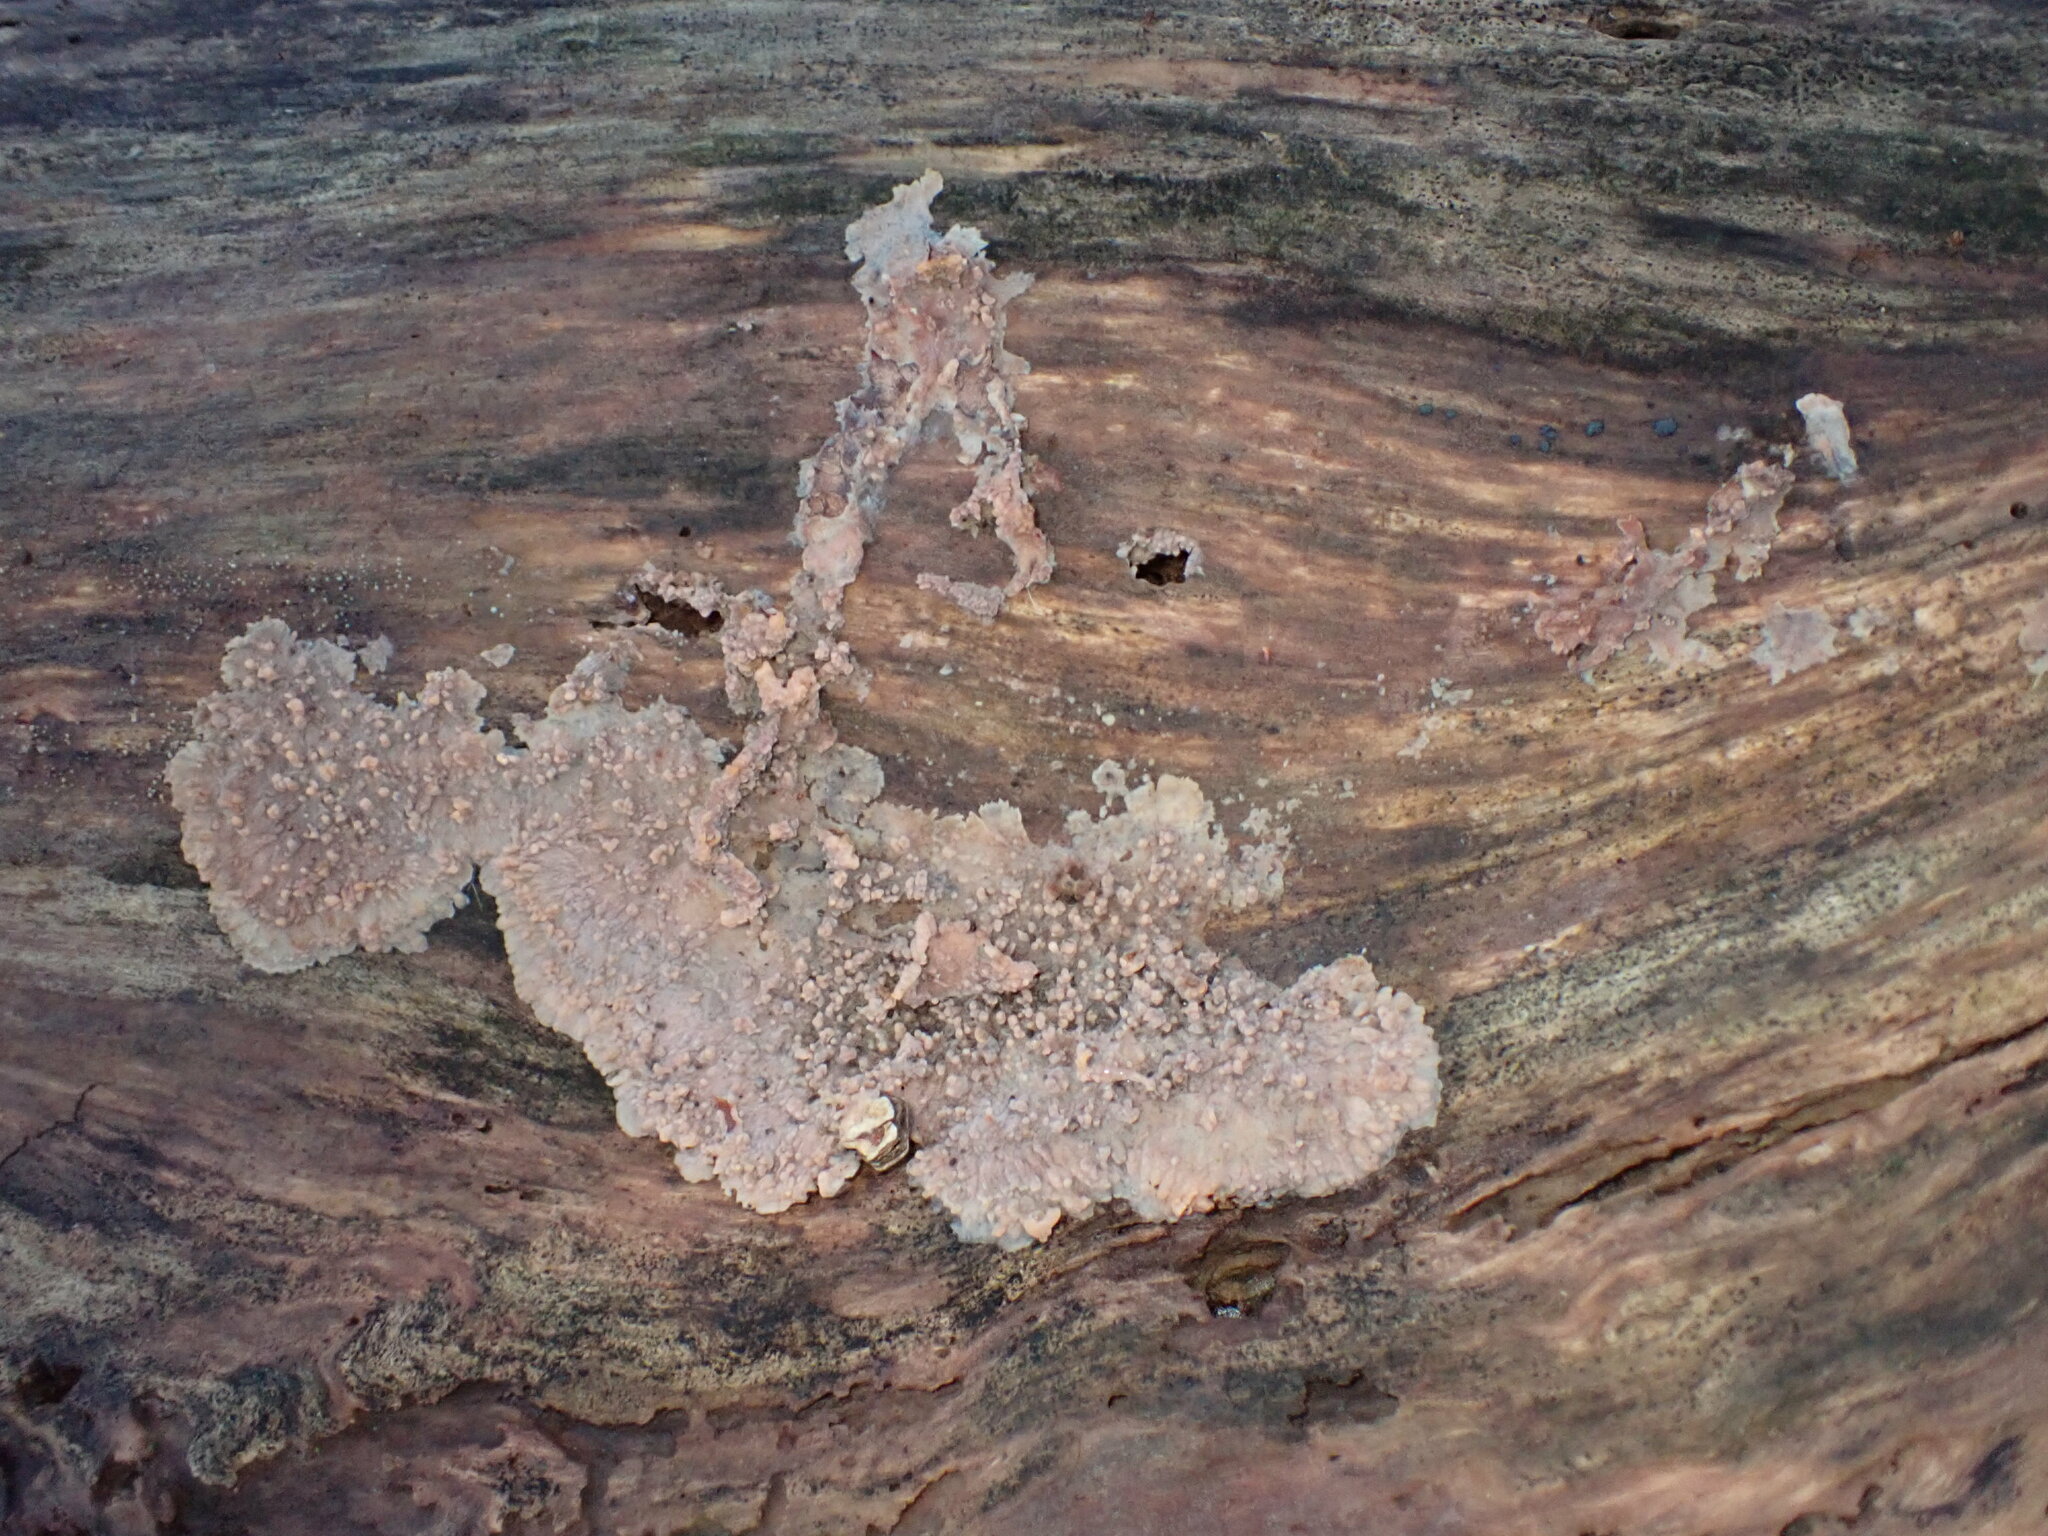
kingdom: Fungi
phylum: Basidiomycota
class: Agaricomycetes
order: Polyporales
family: Meruliaceae
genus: Phlebia
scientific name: Phlebia radiata
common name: Wrinkled crust
